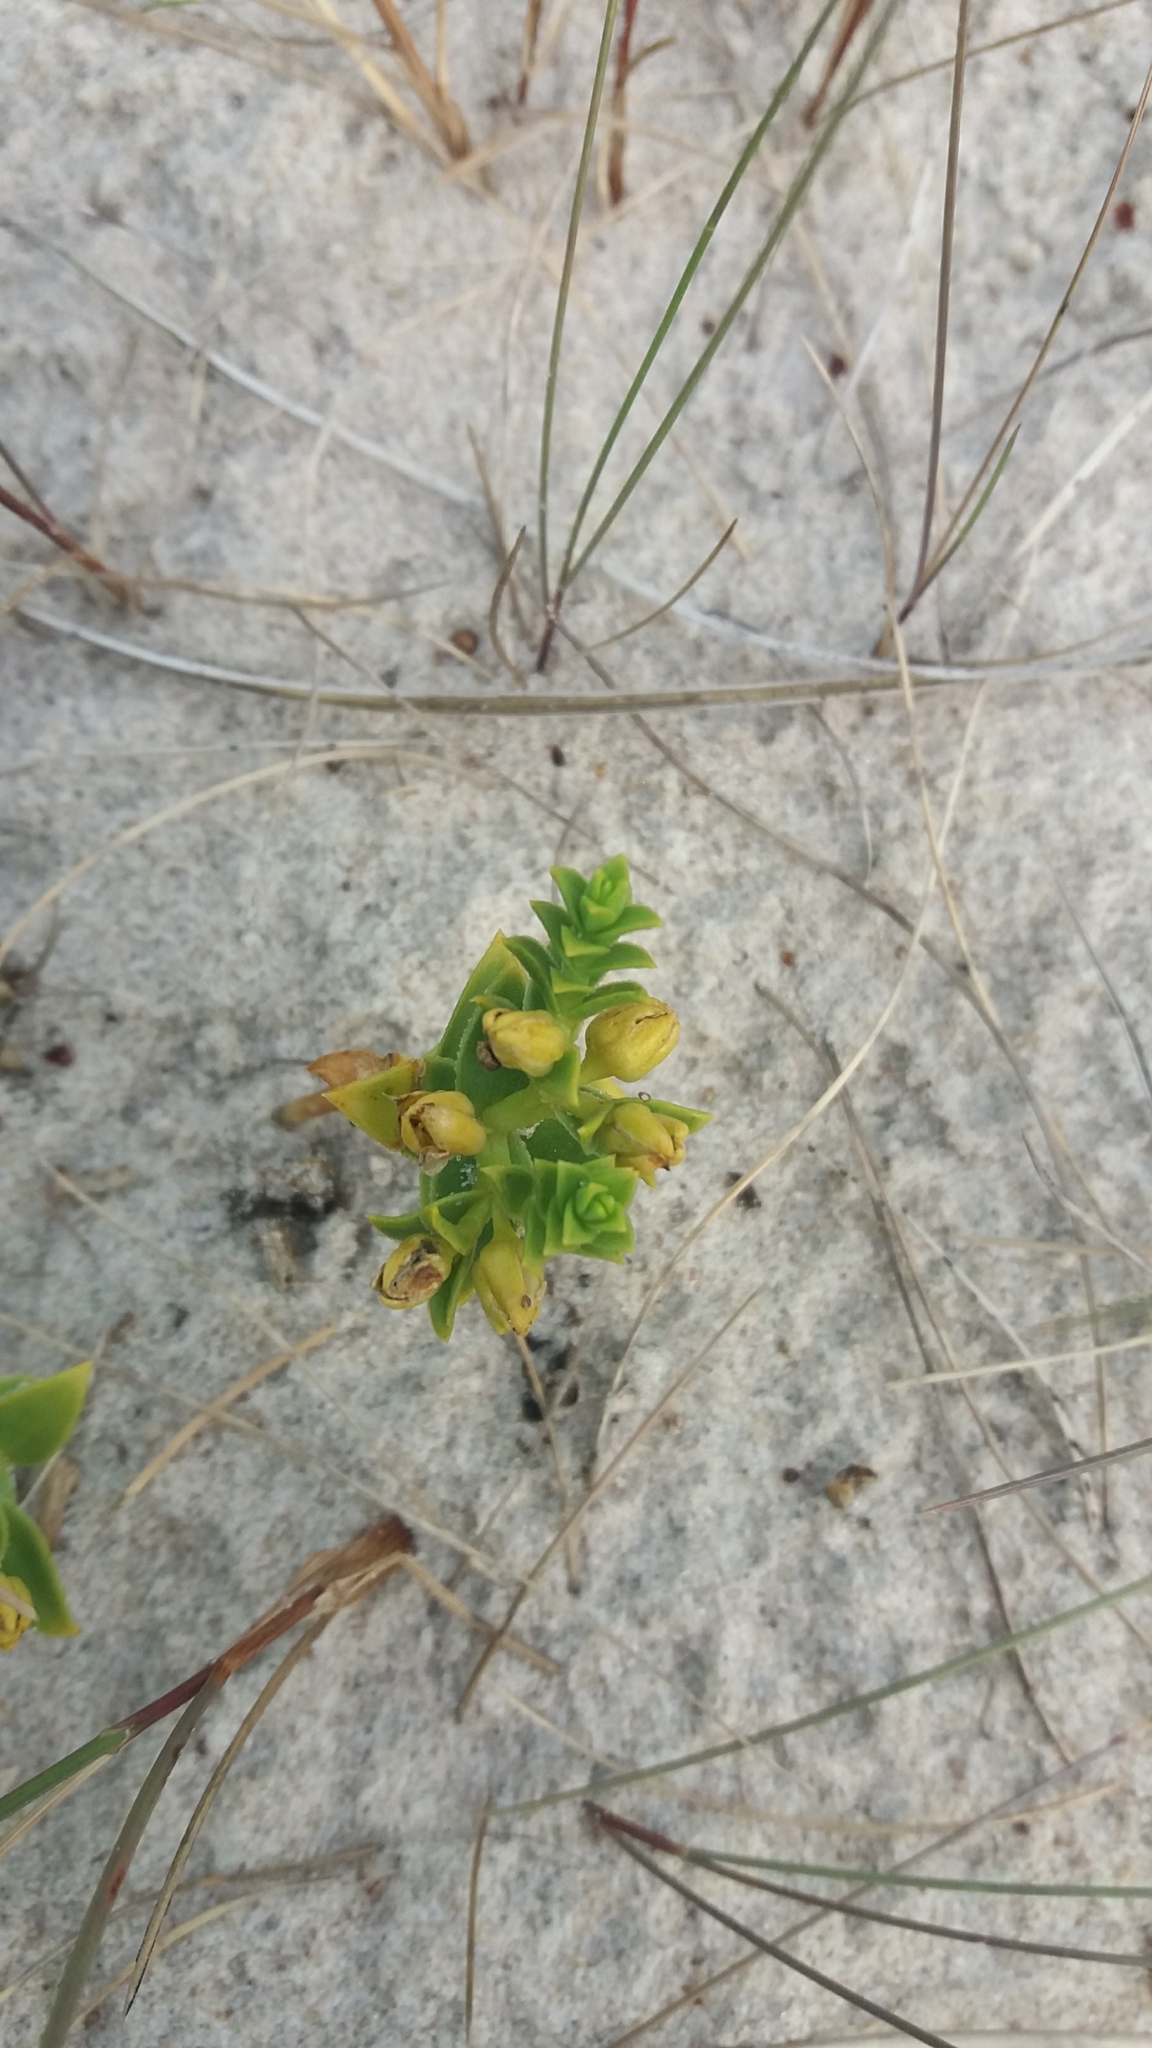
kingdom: Plantae
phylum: Tracheophyta
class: Magnoliopsida
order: Caryophyllales
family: Caryophyllaceae
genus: Honckenya
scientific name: Honckenya peploides
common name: Sea sandwort
